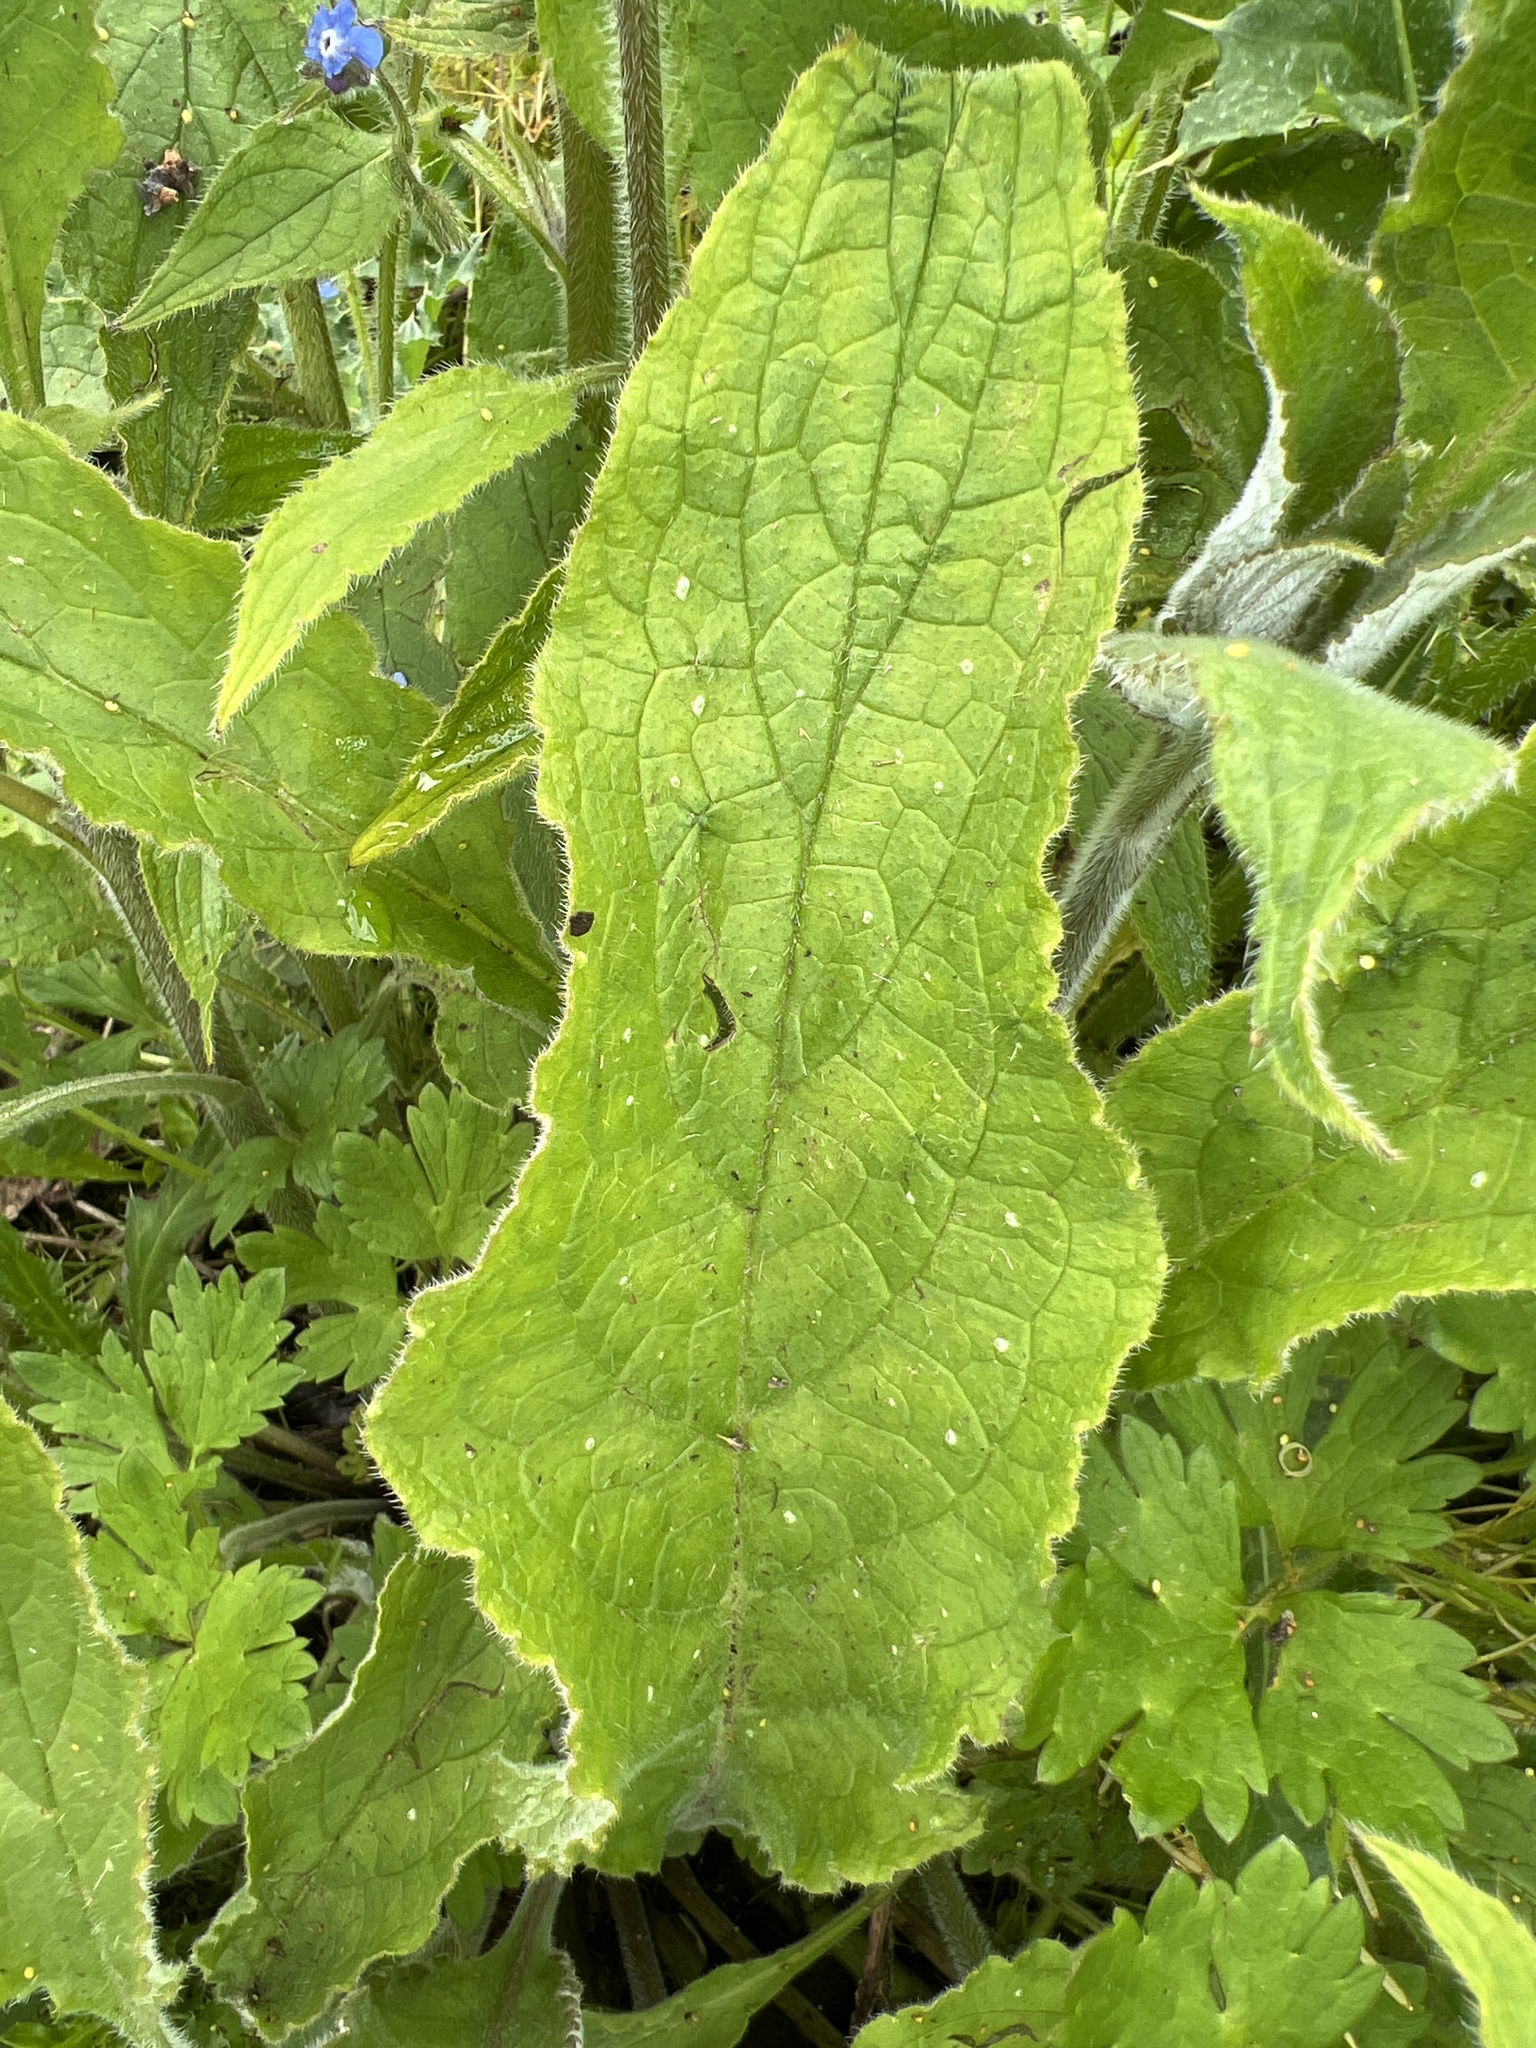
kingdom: Plantae
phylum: Tracheophyta
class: Magnoliopsida
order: Boraginales
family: Boraginaceae
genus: Pentaglottis
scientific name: Pentaglottis sempervirens
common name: Green alkanet
